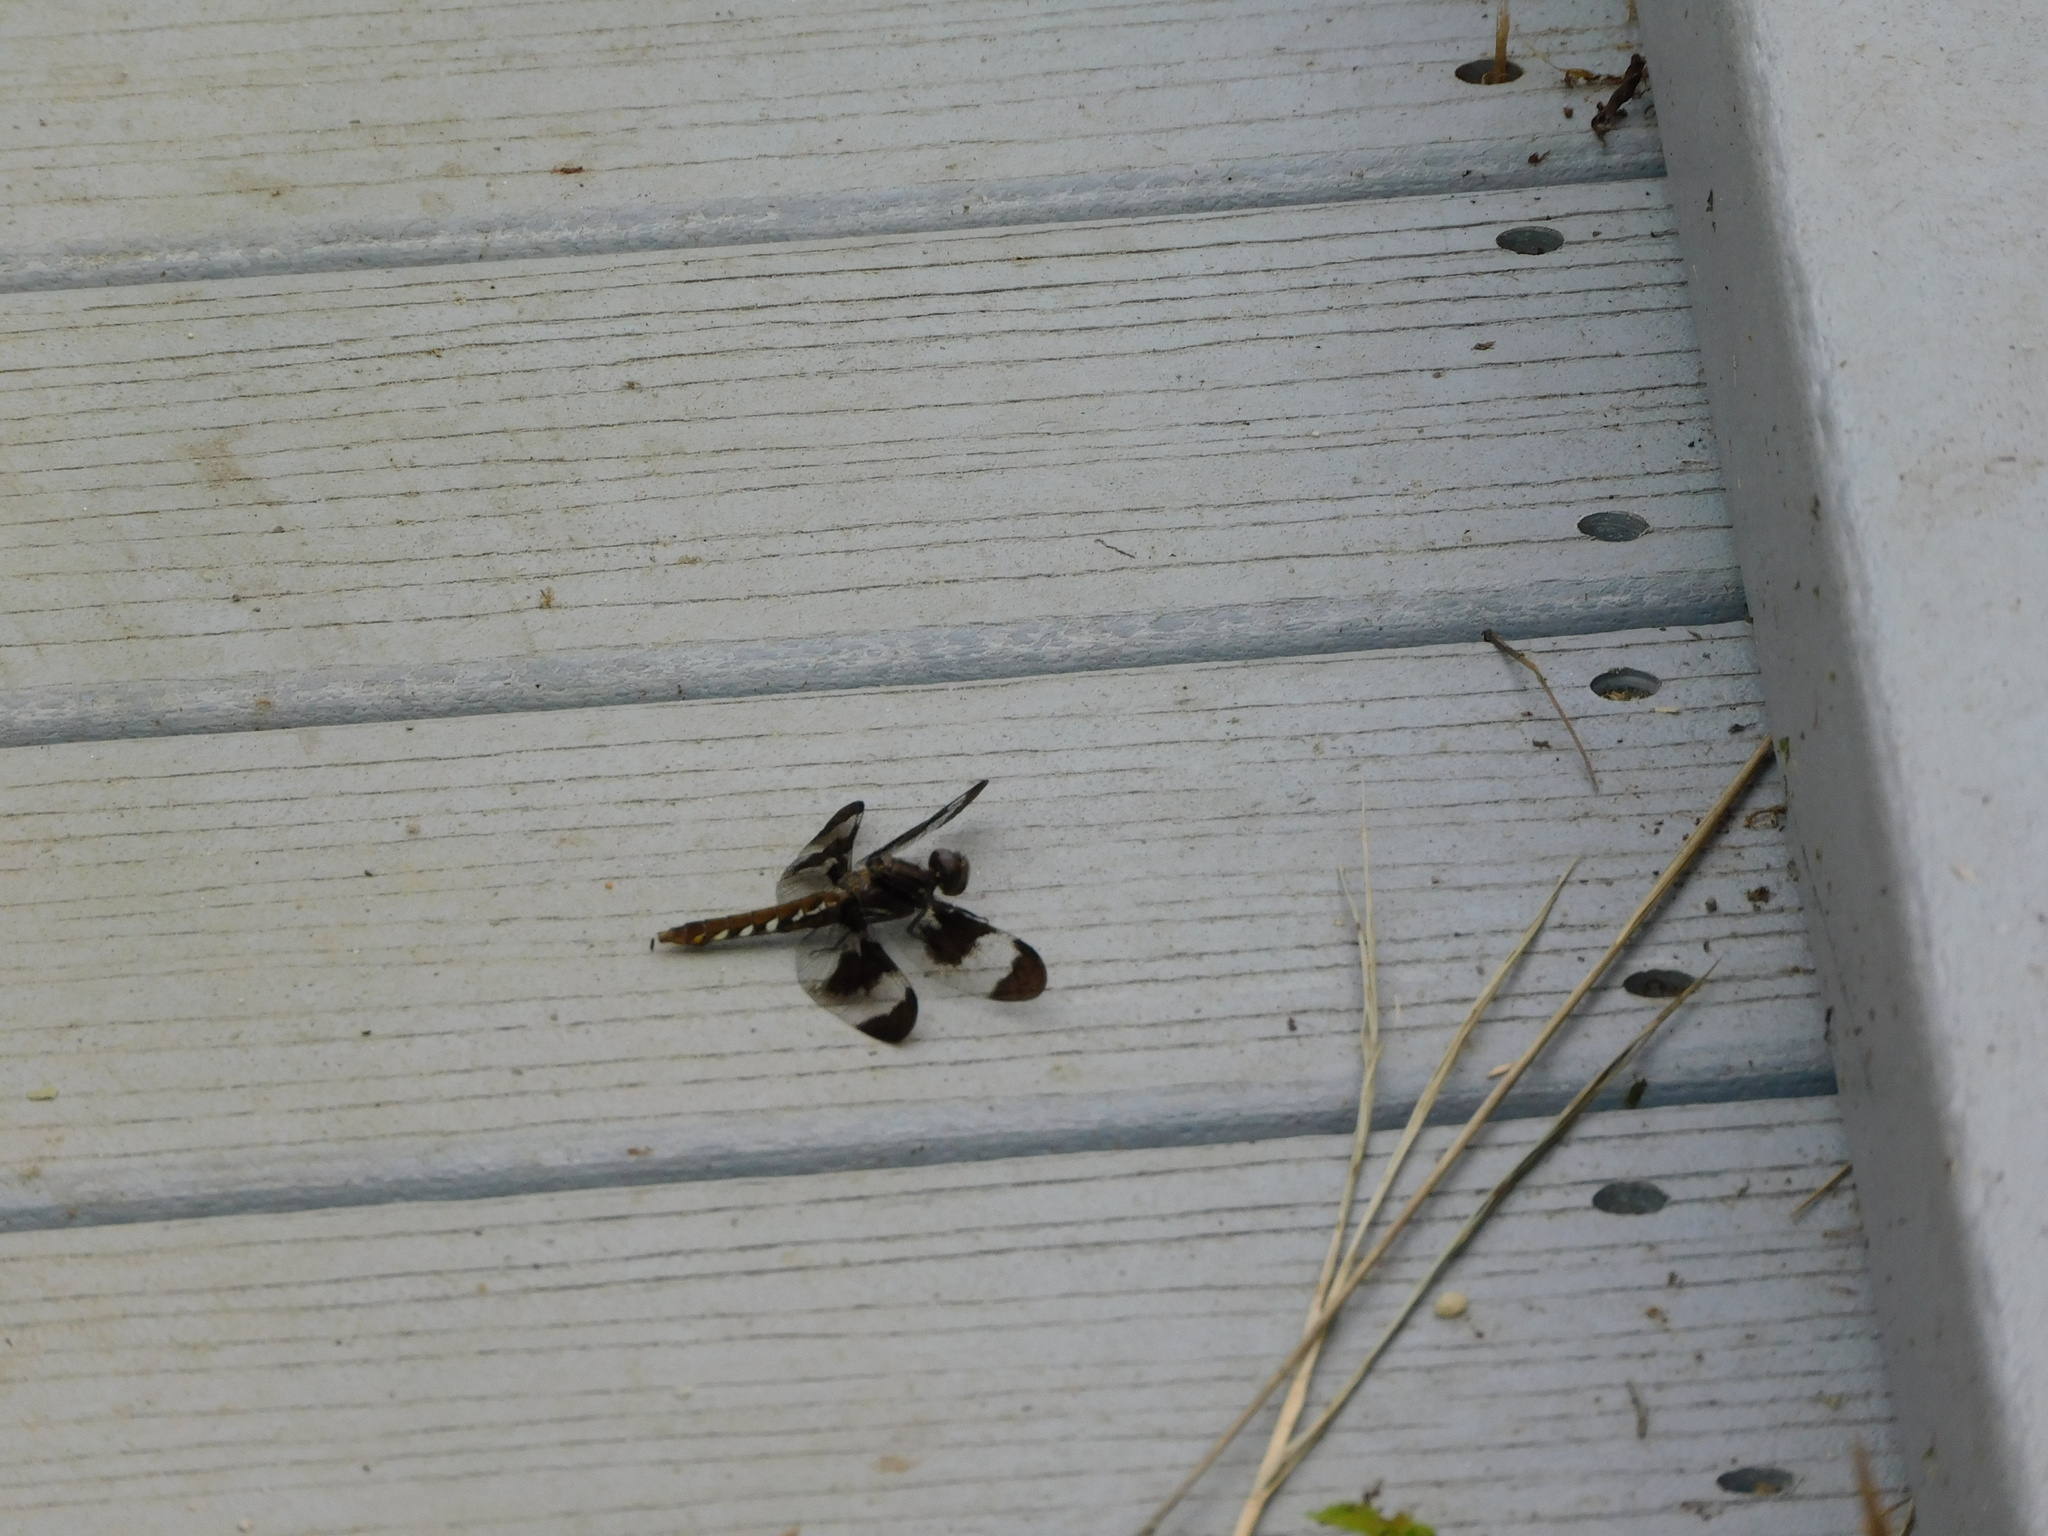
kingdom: Animalia
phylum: Arthropoda
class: Insecta
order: Odonata
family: Libellulidae
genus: Plathemis
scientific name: Plathemis lydia
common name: Common whitetail
